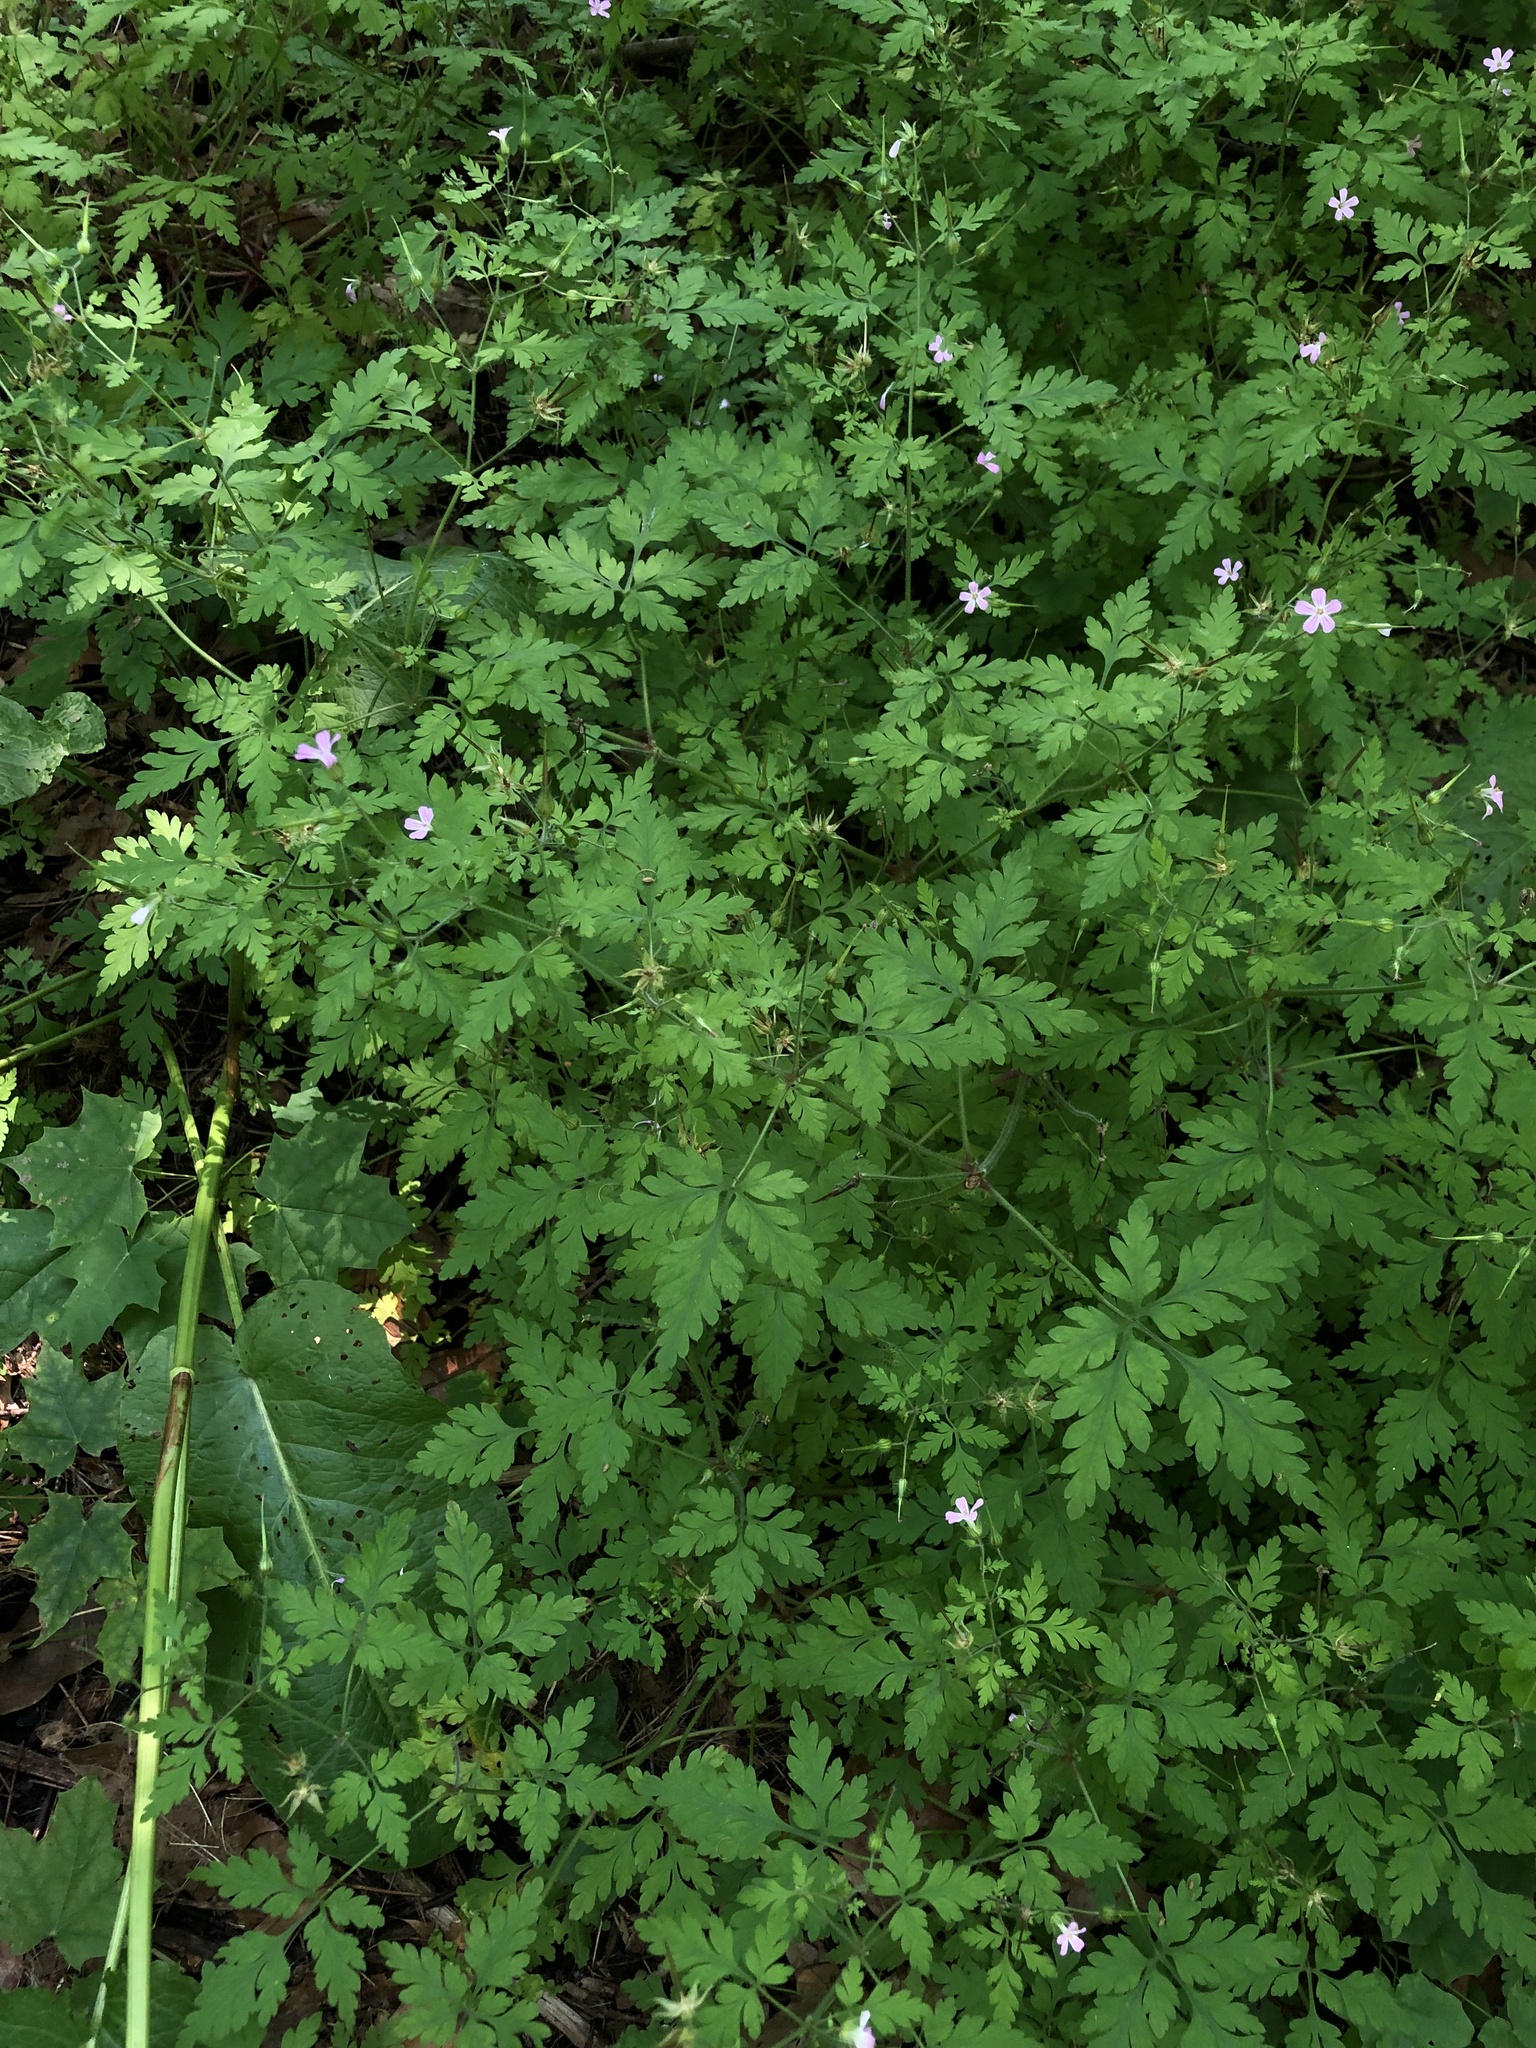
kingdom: Plantae
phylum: Tracheophyta
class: Magnoliopsida
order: Geraniales
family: Geraniaceae
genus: Geranium
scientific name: Geranium robertianum
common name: Herb-robert
